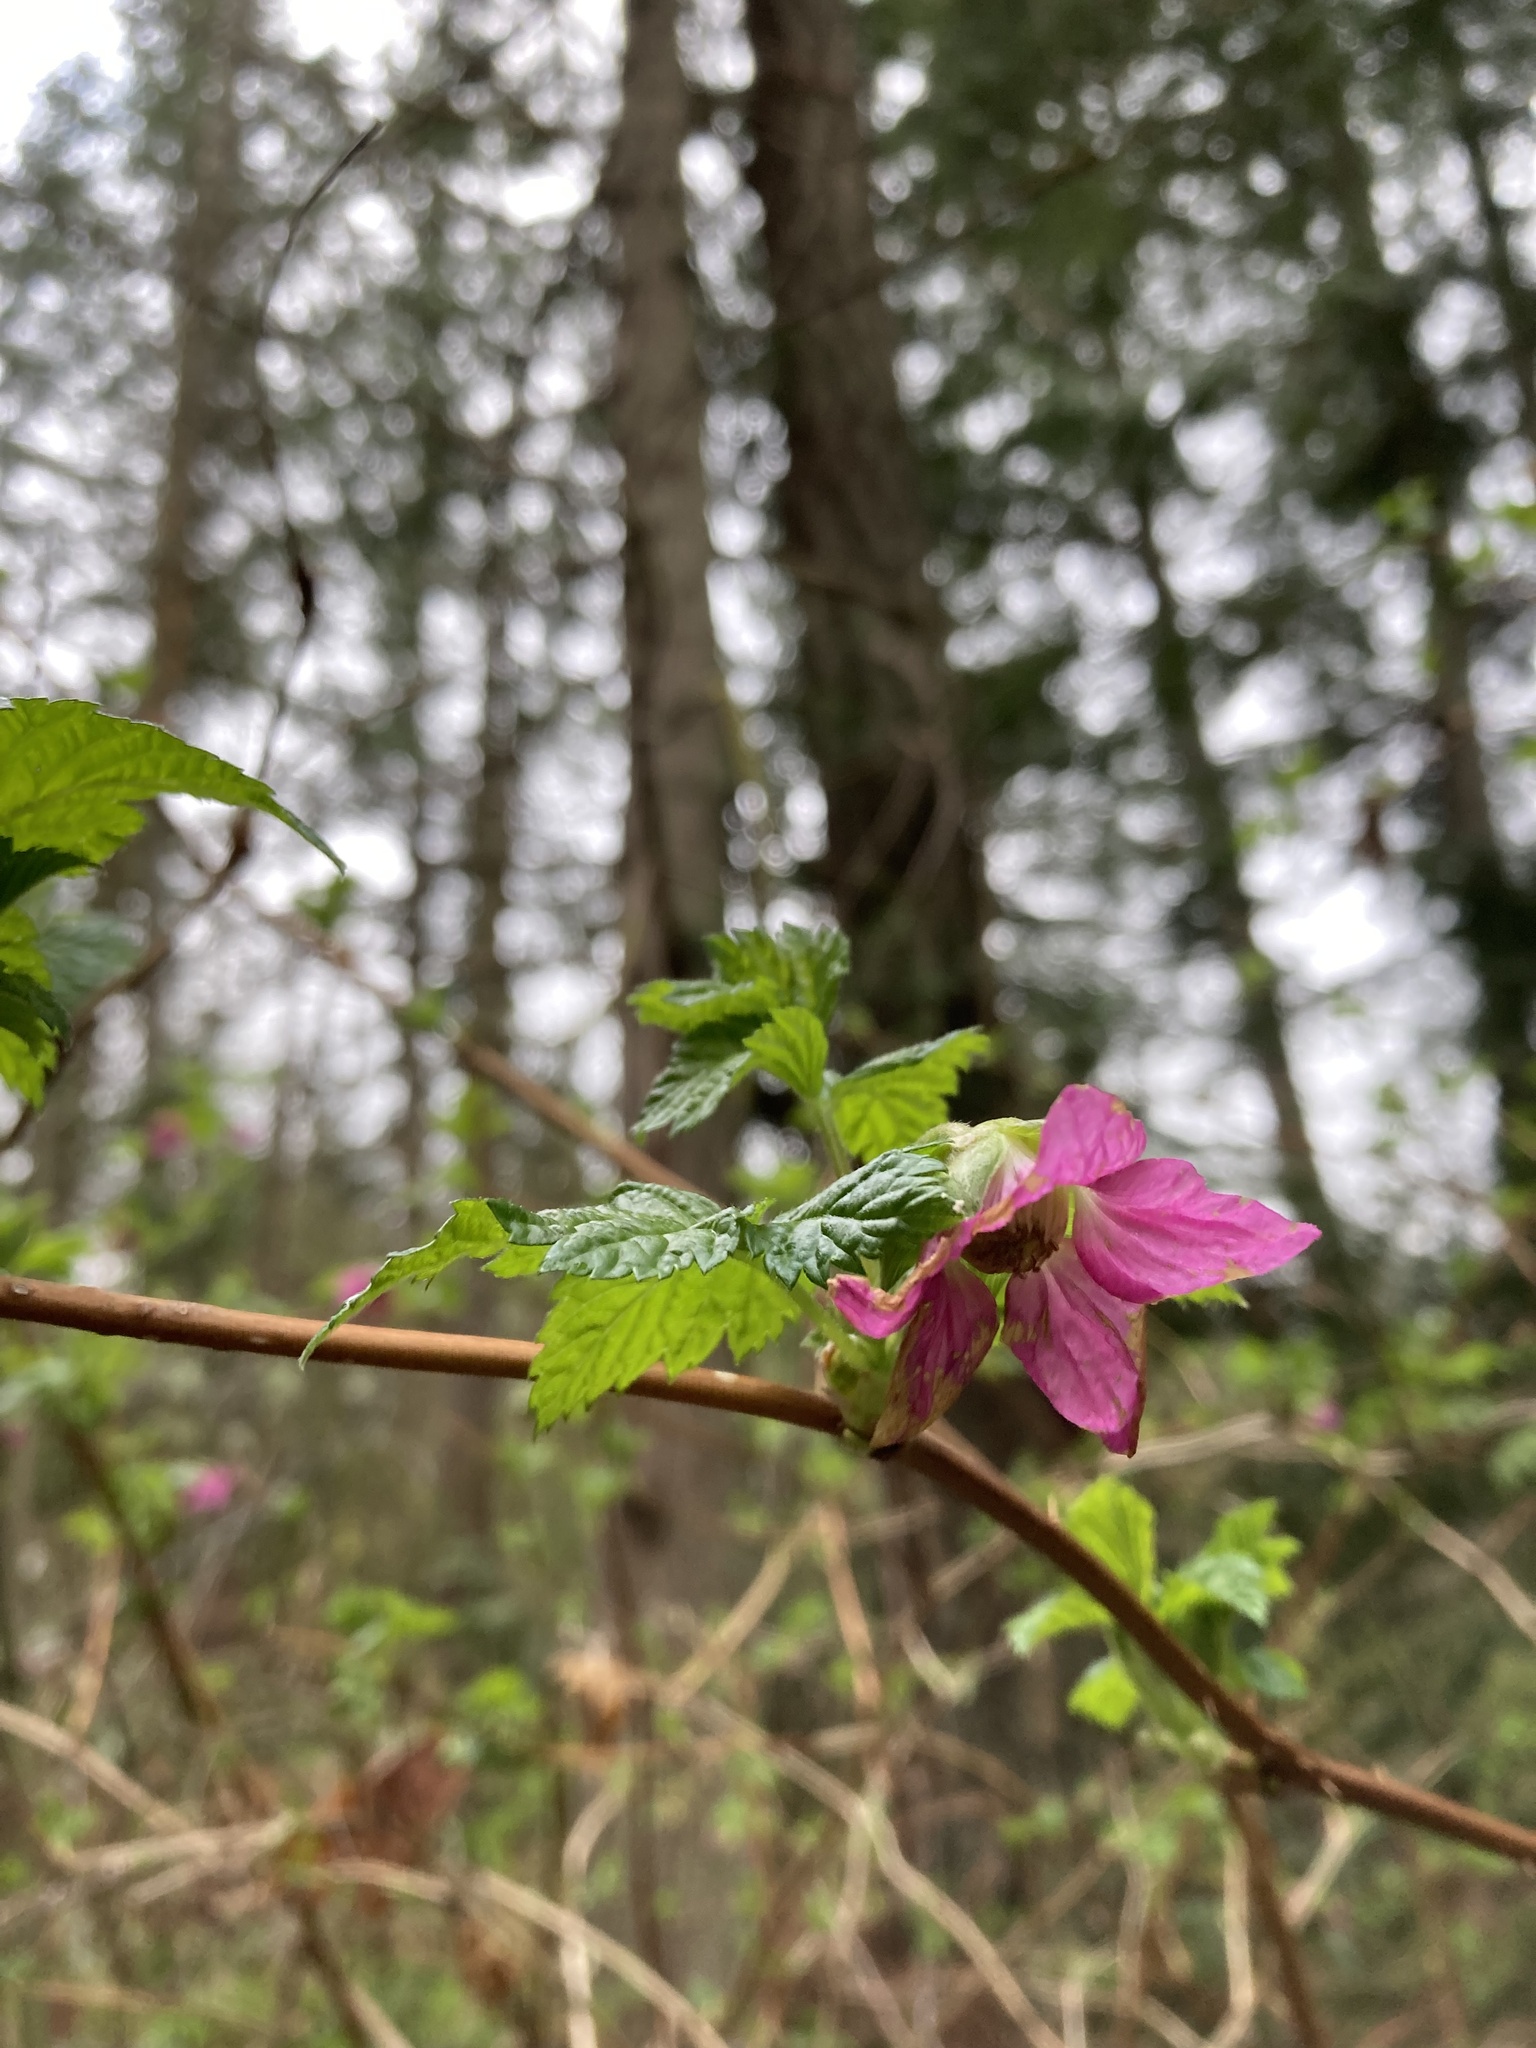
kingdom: Plantae
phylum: Tracheophyta
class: Magnoliopsida
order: Rosales
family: Rosaceae
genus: Rubus
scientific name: Rubus spectabilis
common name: Salmonberry
